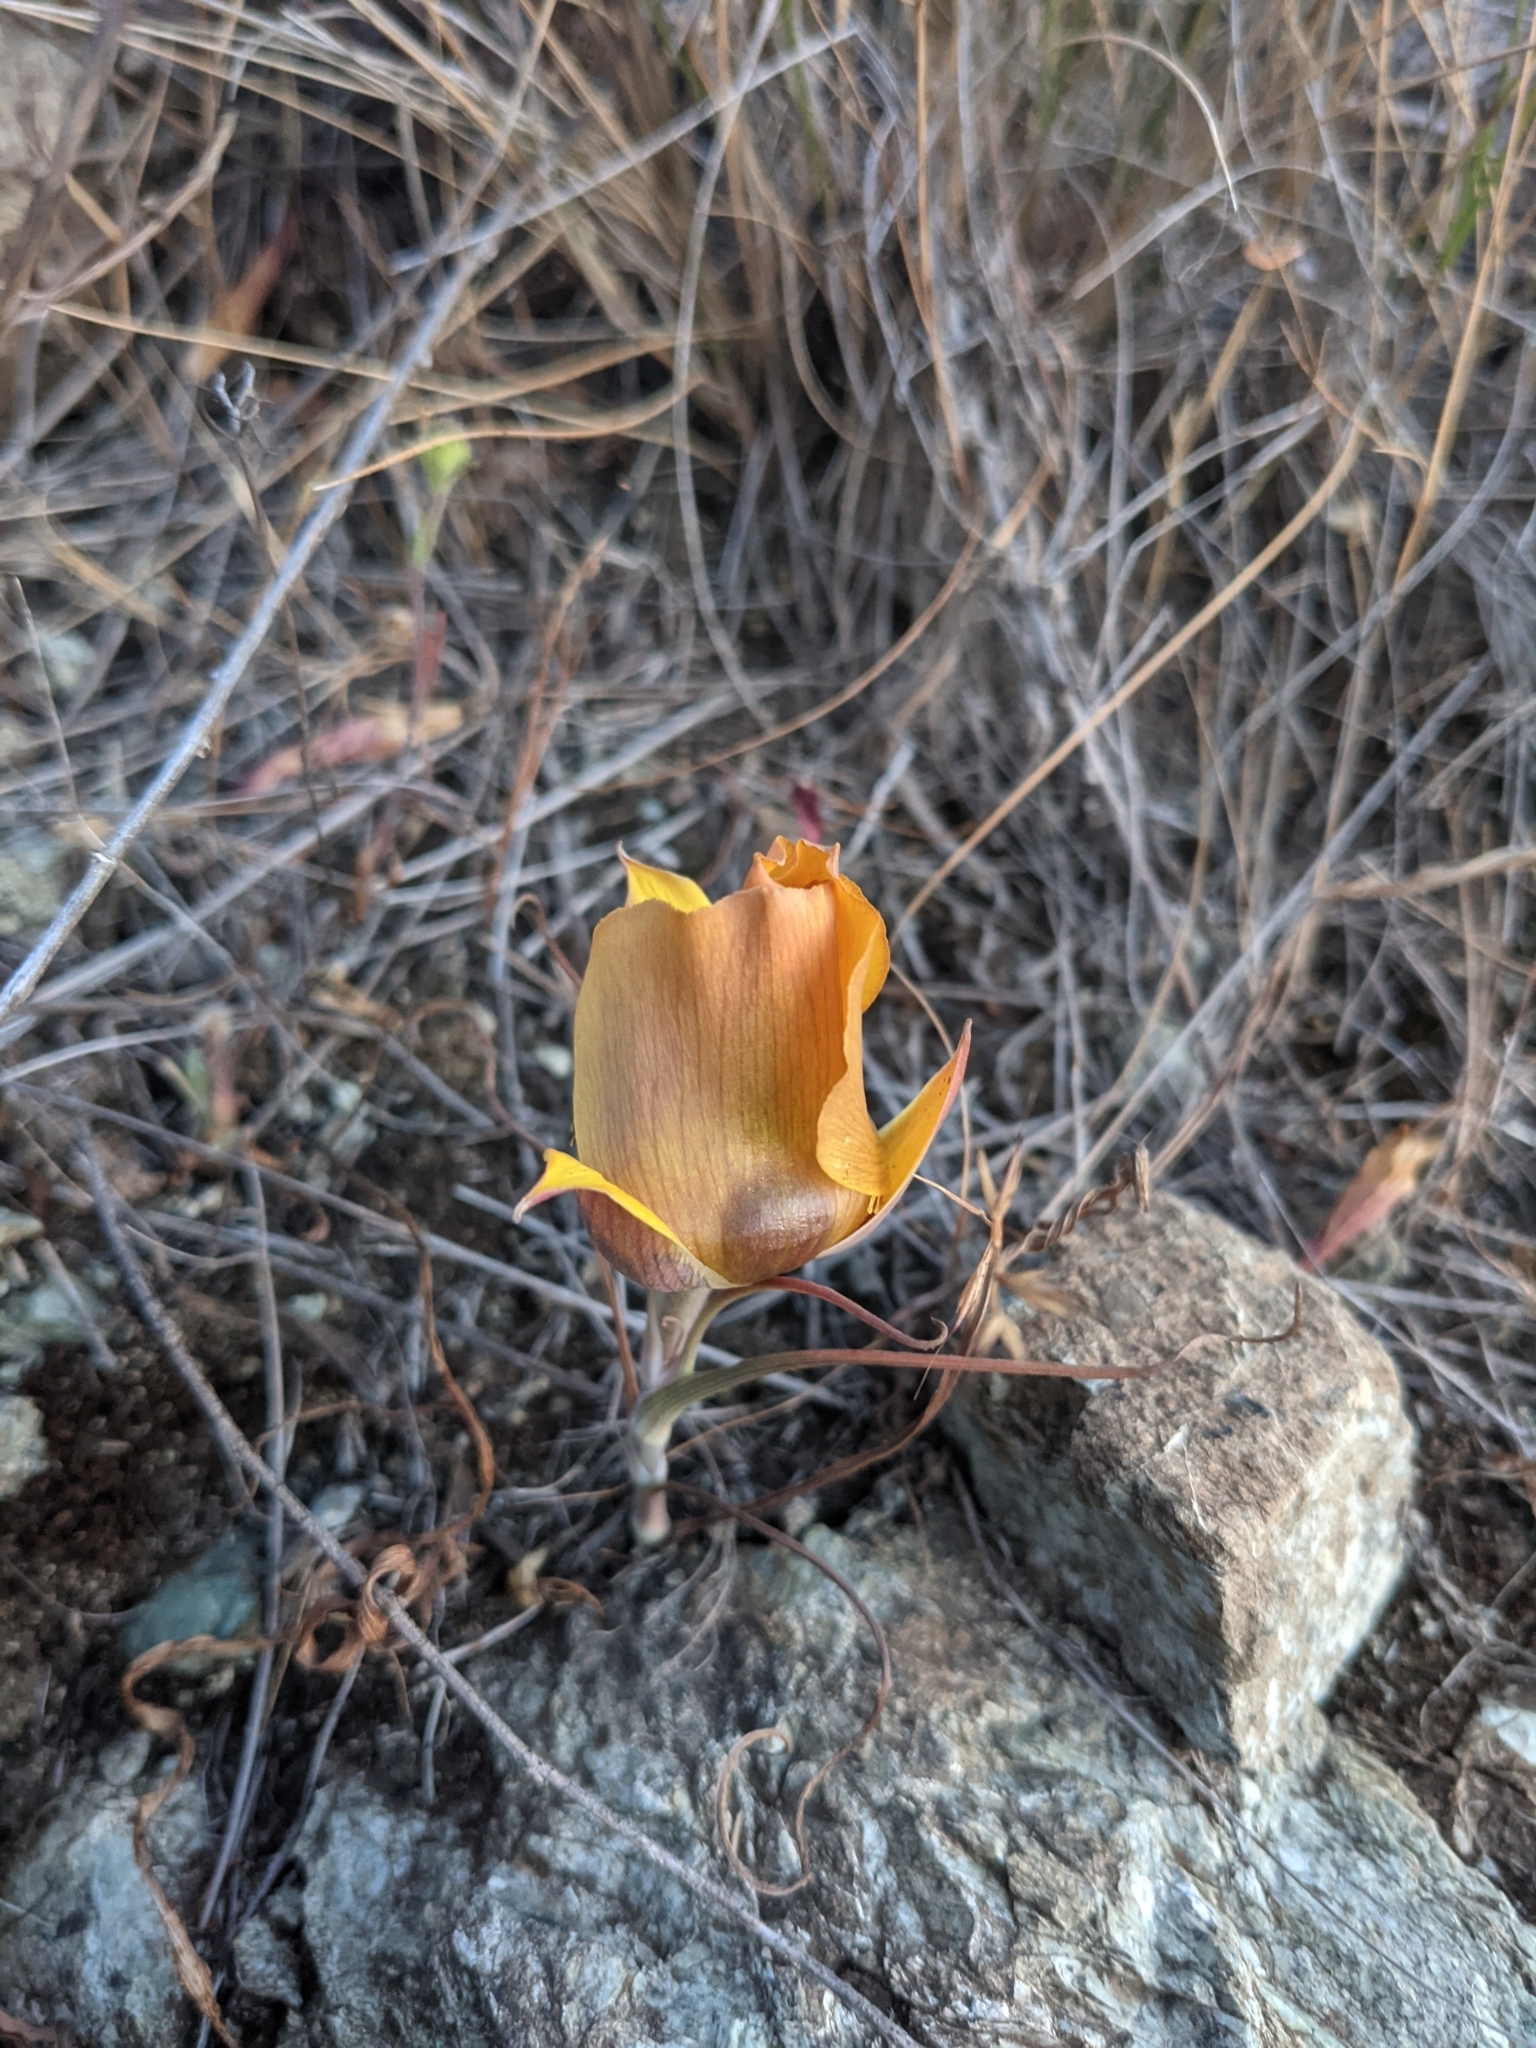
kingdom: Plantae
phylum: Tracheophyta
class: Liliopsida
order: Liliales
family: Liliaceae
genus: Calochortus
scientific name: Calochortus clavatus
